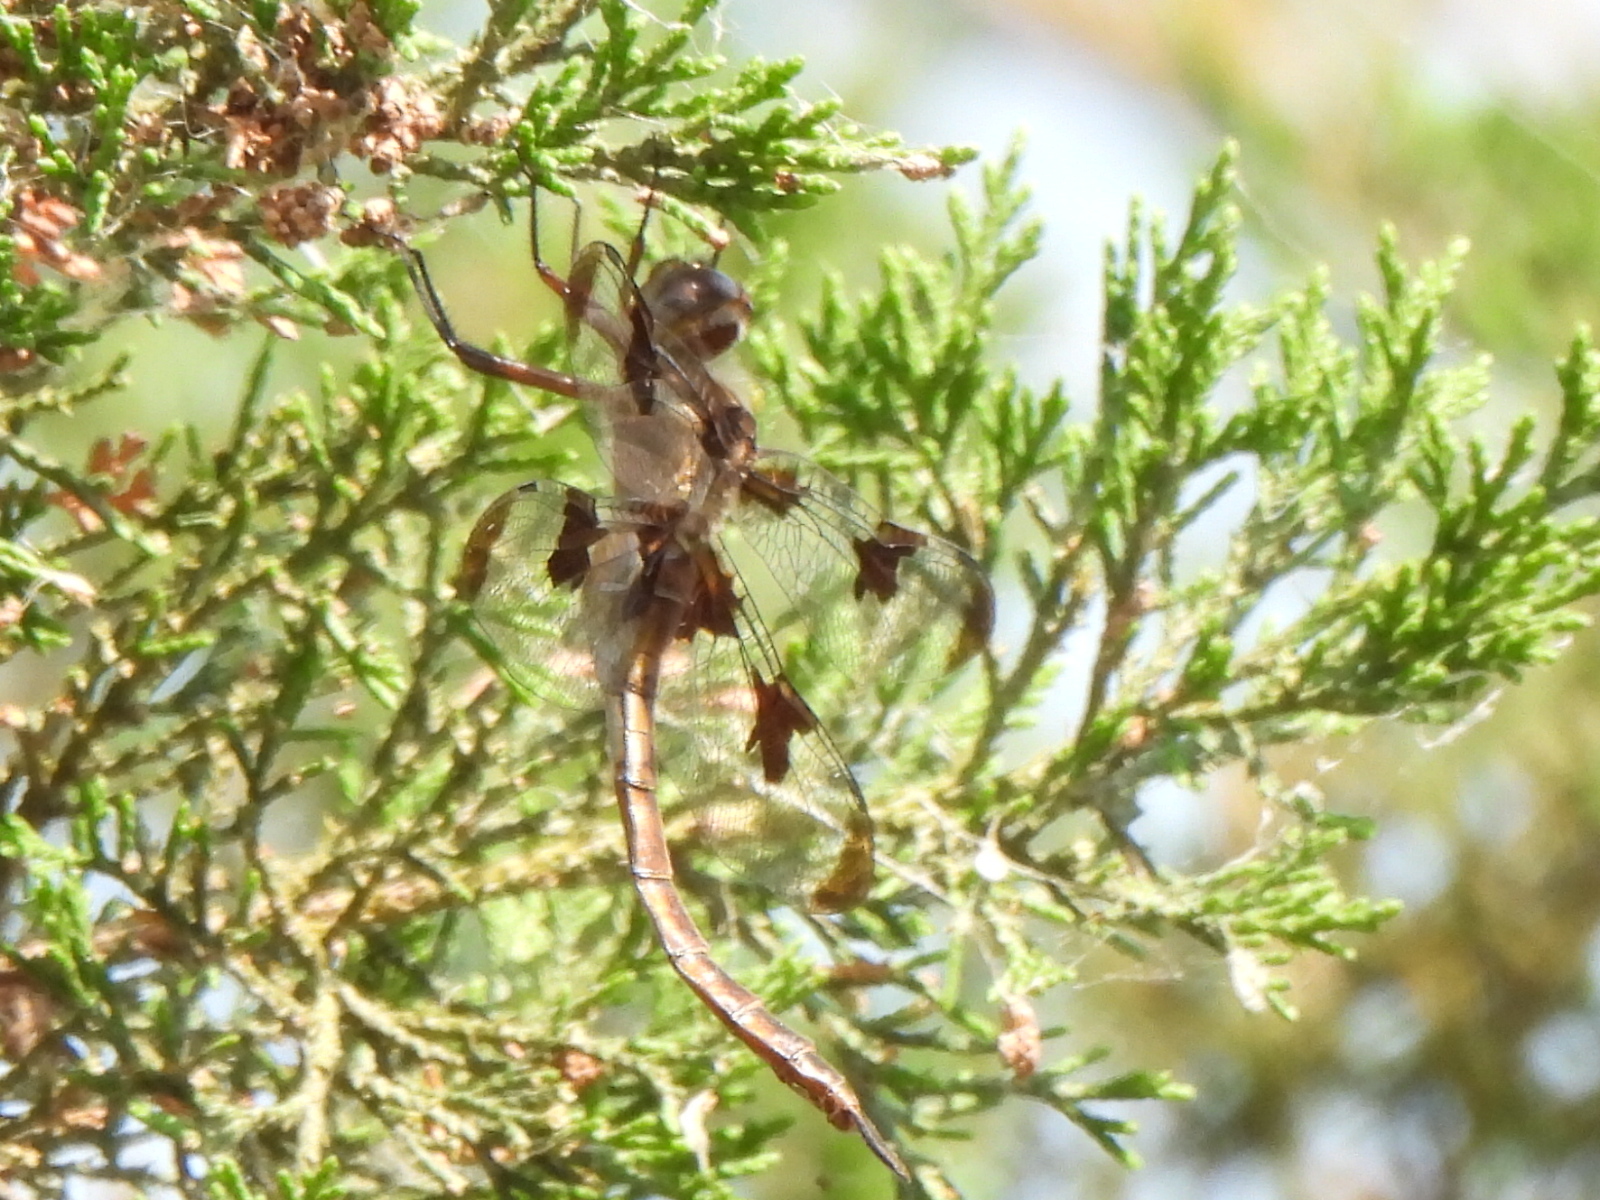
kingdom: Animalia
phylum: Arthropoda
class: Insecta
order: Odonata
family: Corduliidae
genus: Epitheca
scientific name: Epitheca princeps
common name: Prince baskettail
